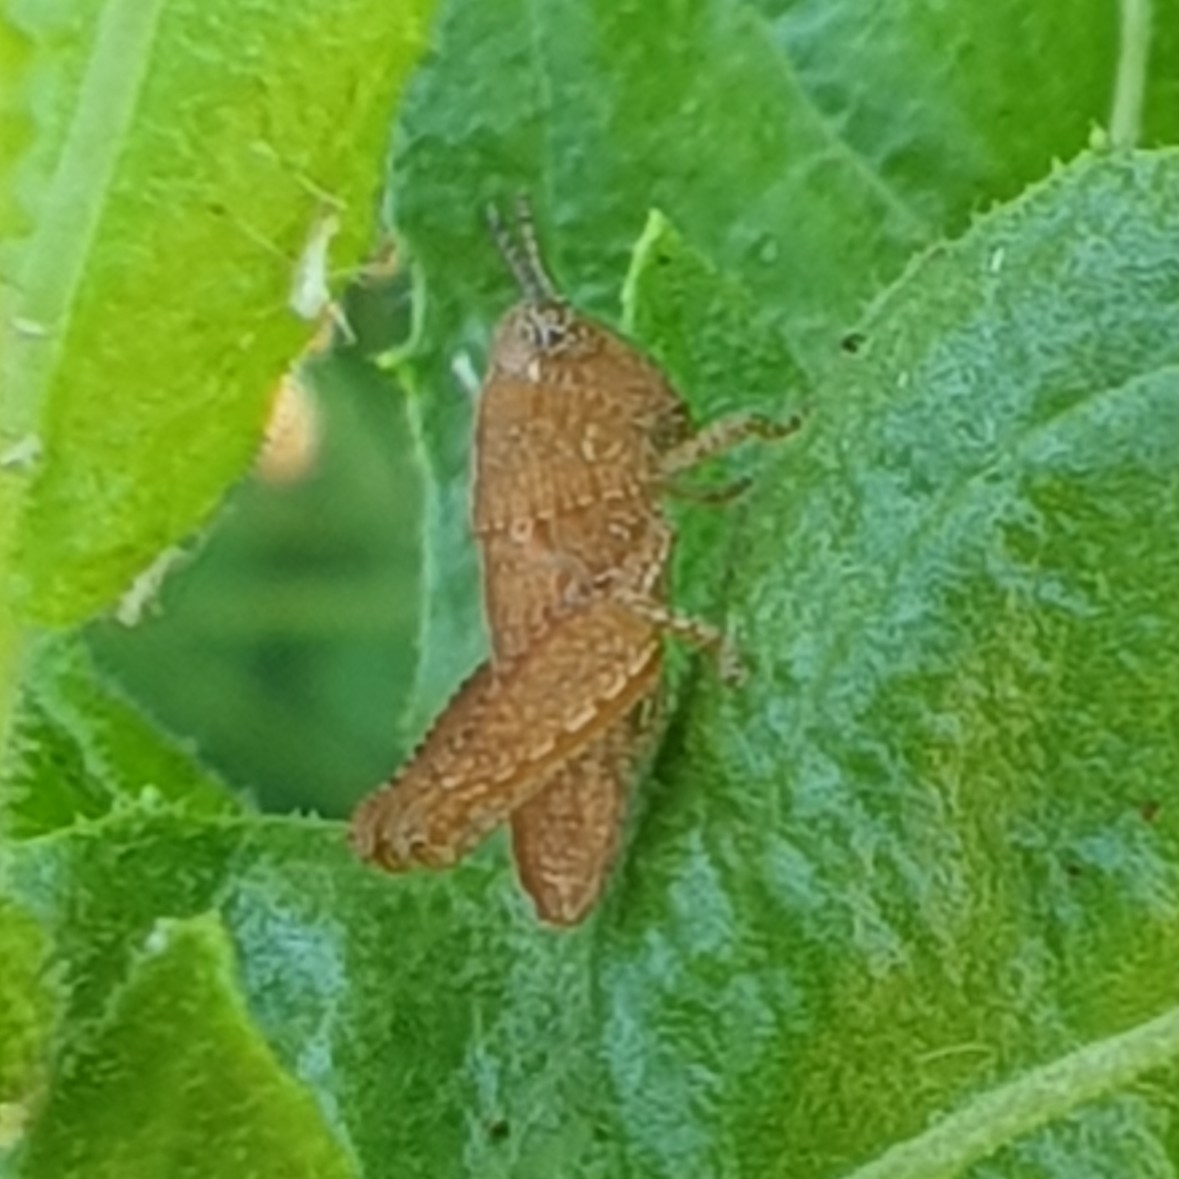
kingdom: Animalia
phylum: Arthropoda
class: Insecta
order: Orthoptera
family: Acrididae
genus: Pezotettix
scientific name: Pezotettix giornae
